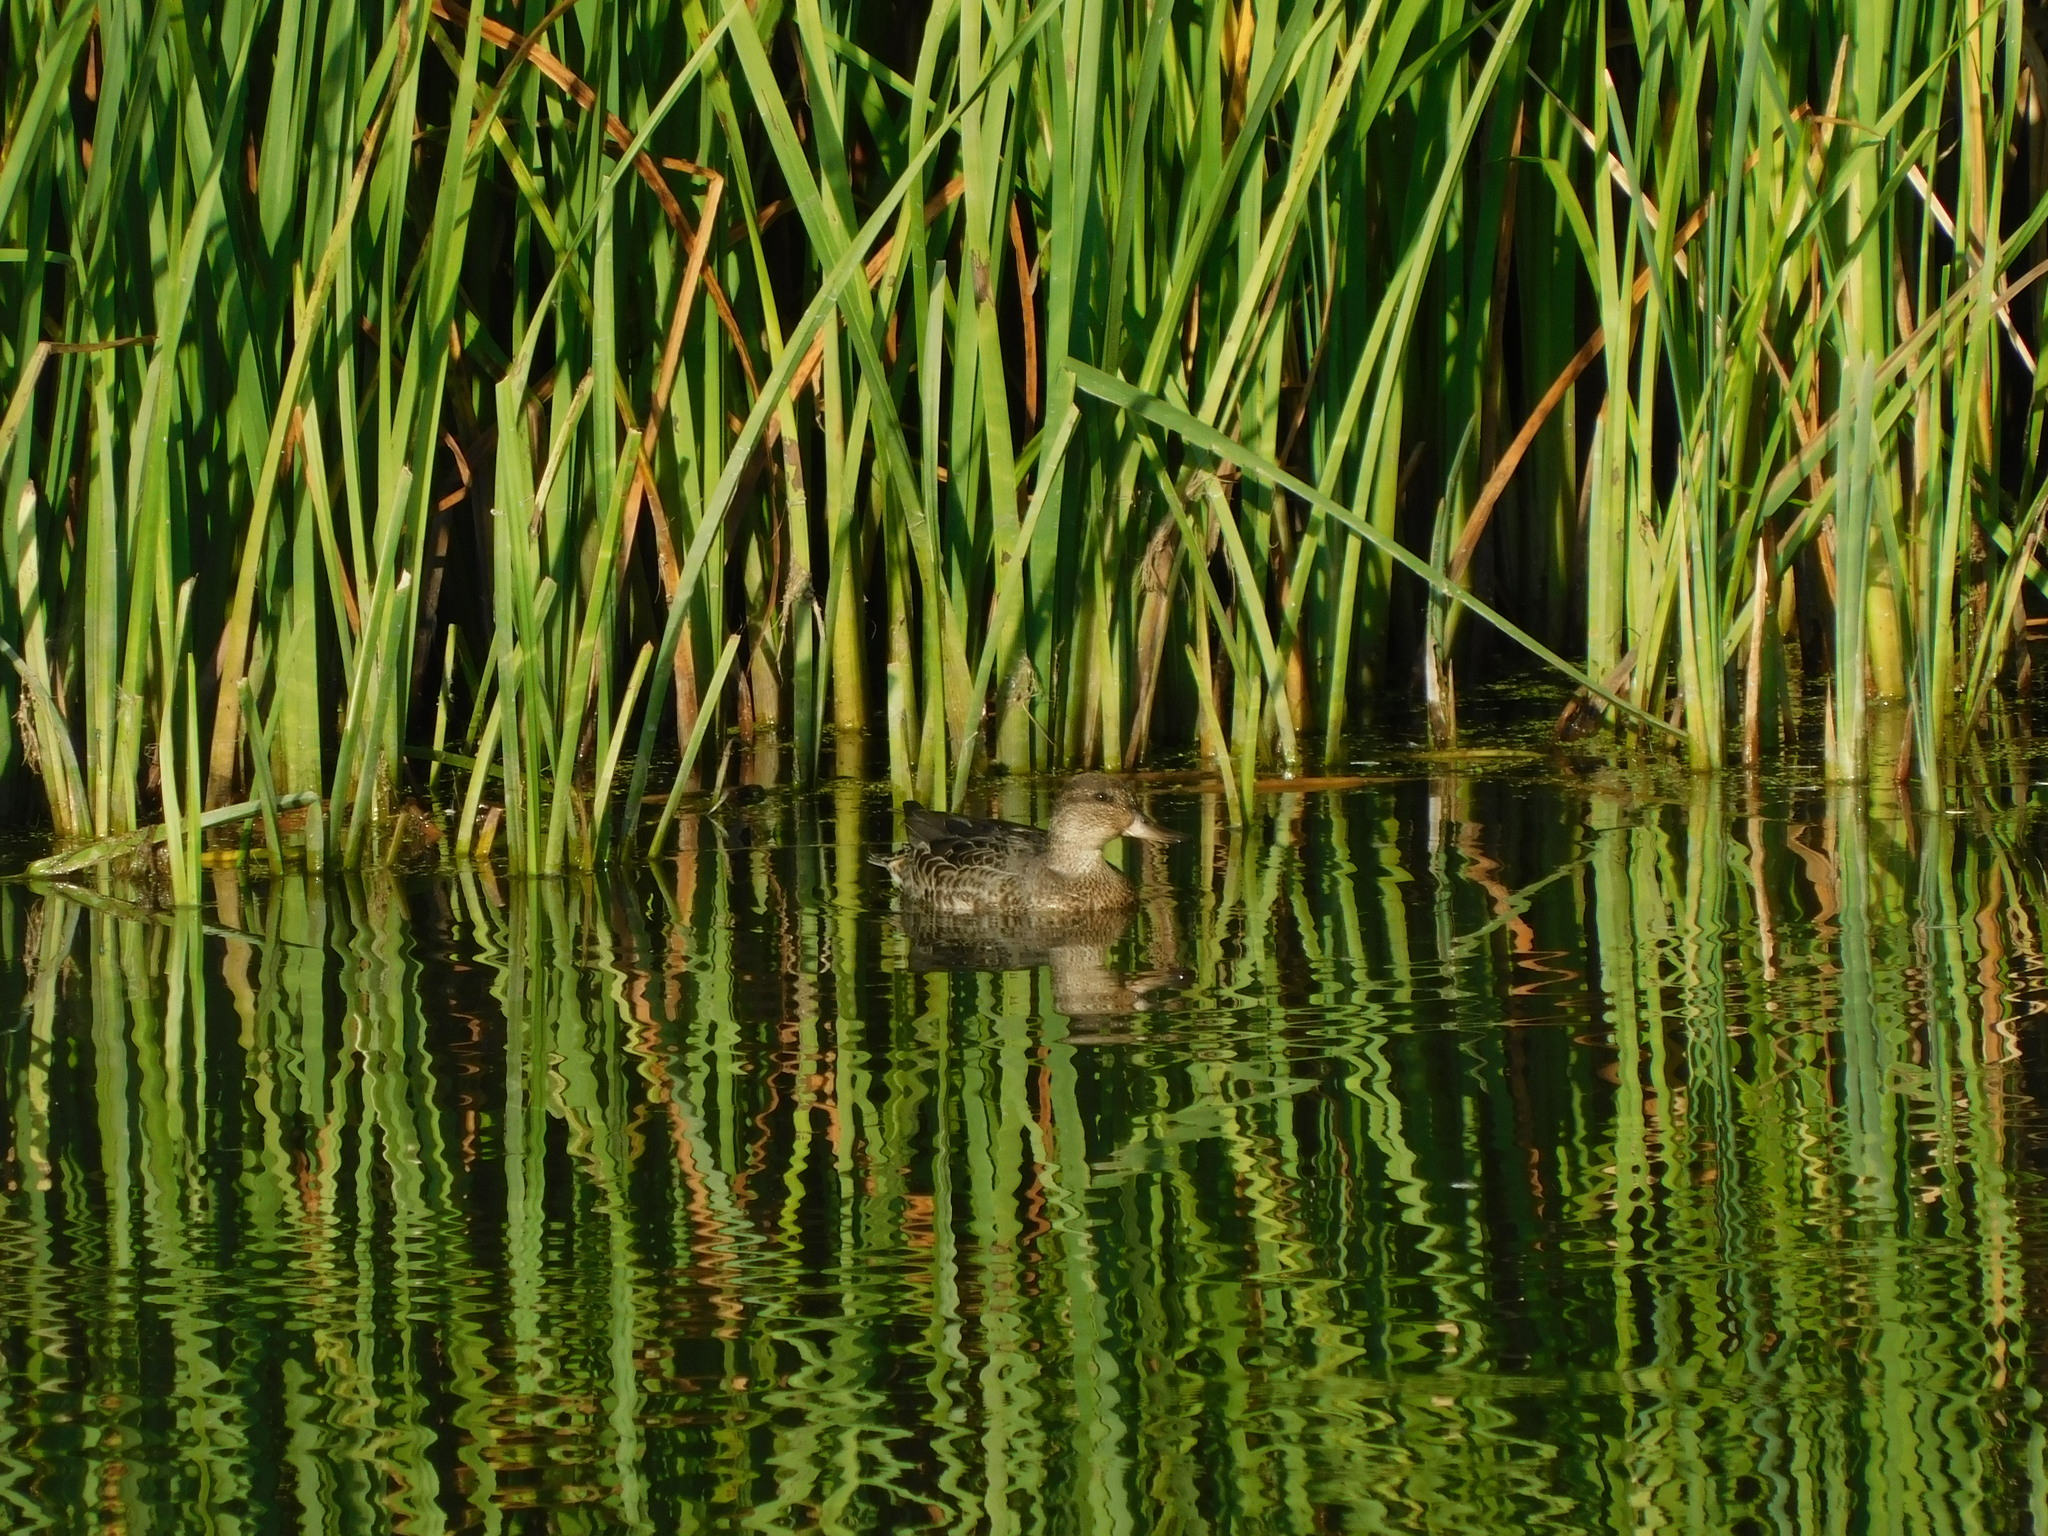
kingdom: Animalia
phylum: Chordata
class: Aves
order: Anseriformes
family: Anatidae
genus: Spatula
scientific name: Spatula cyanoptera
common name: Cinnamon teal
